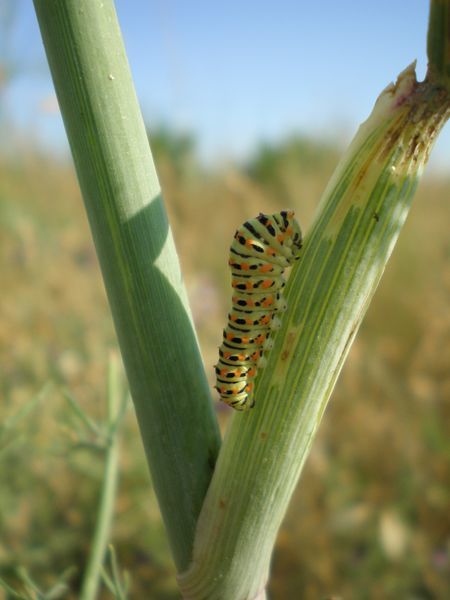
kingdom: Animalia
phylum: Arthropoda
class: Insecta
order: Lepidoptera
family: Papilionidae
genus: Papilio
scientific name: Papilio machaon
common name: Swallowtail
